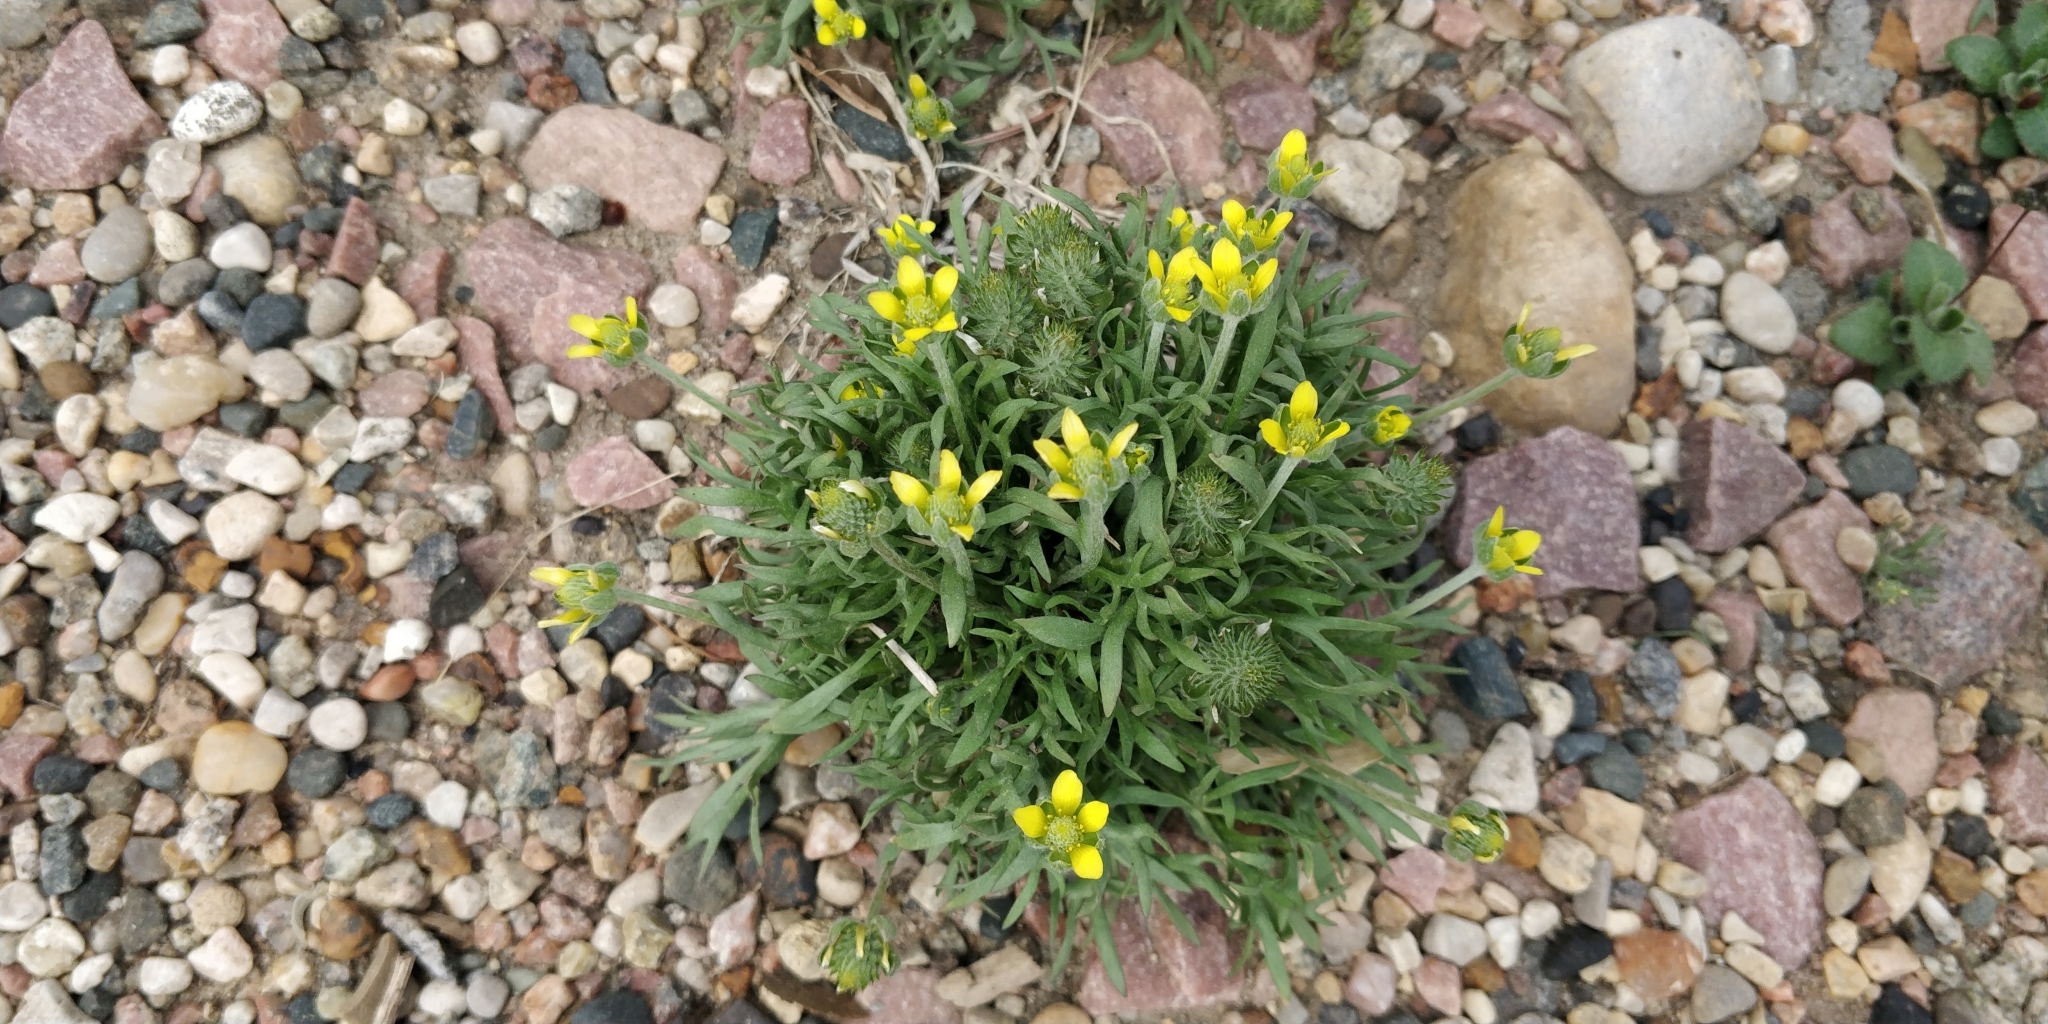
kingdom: Plantae
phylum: Tracheophyta
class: Magnoliopsida
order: Ranunculales
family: Ranunculaceae
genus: Ceratocephala
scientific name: Ceratocephala orthoceras
